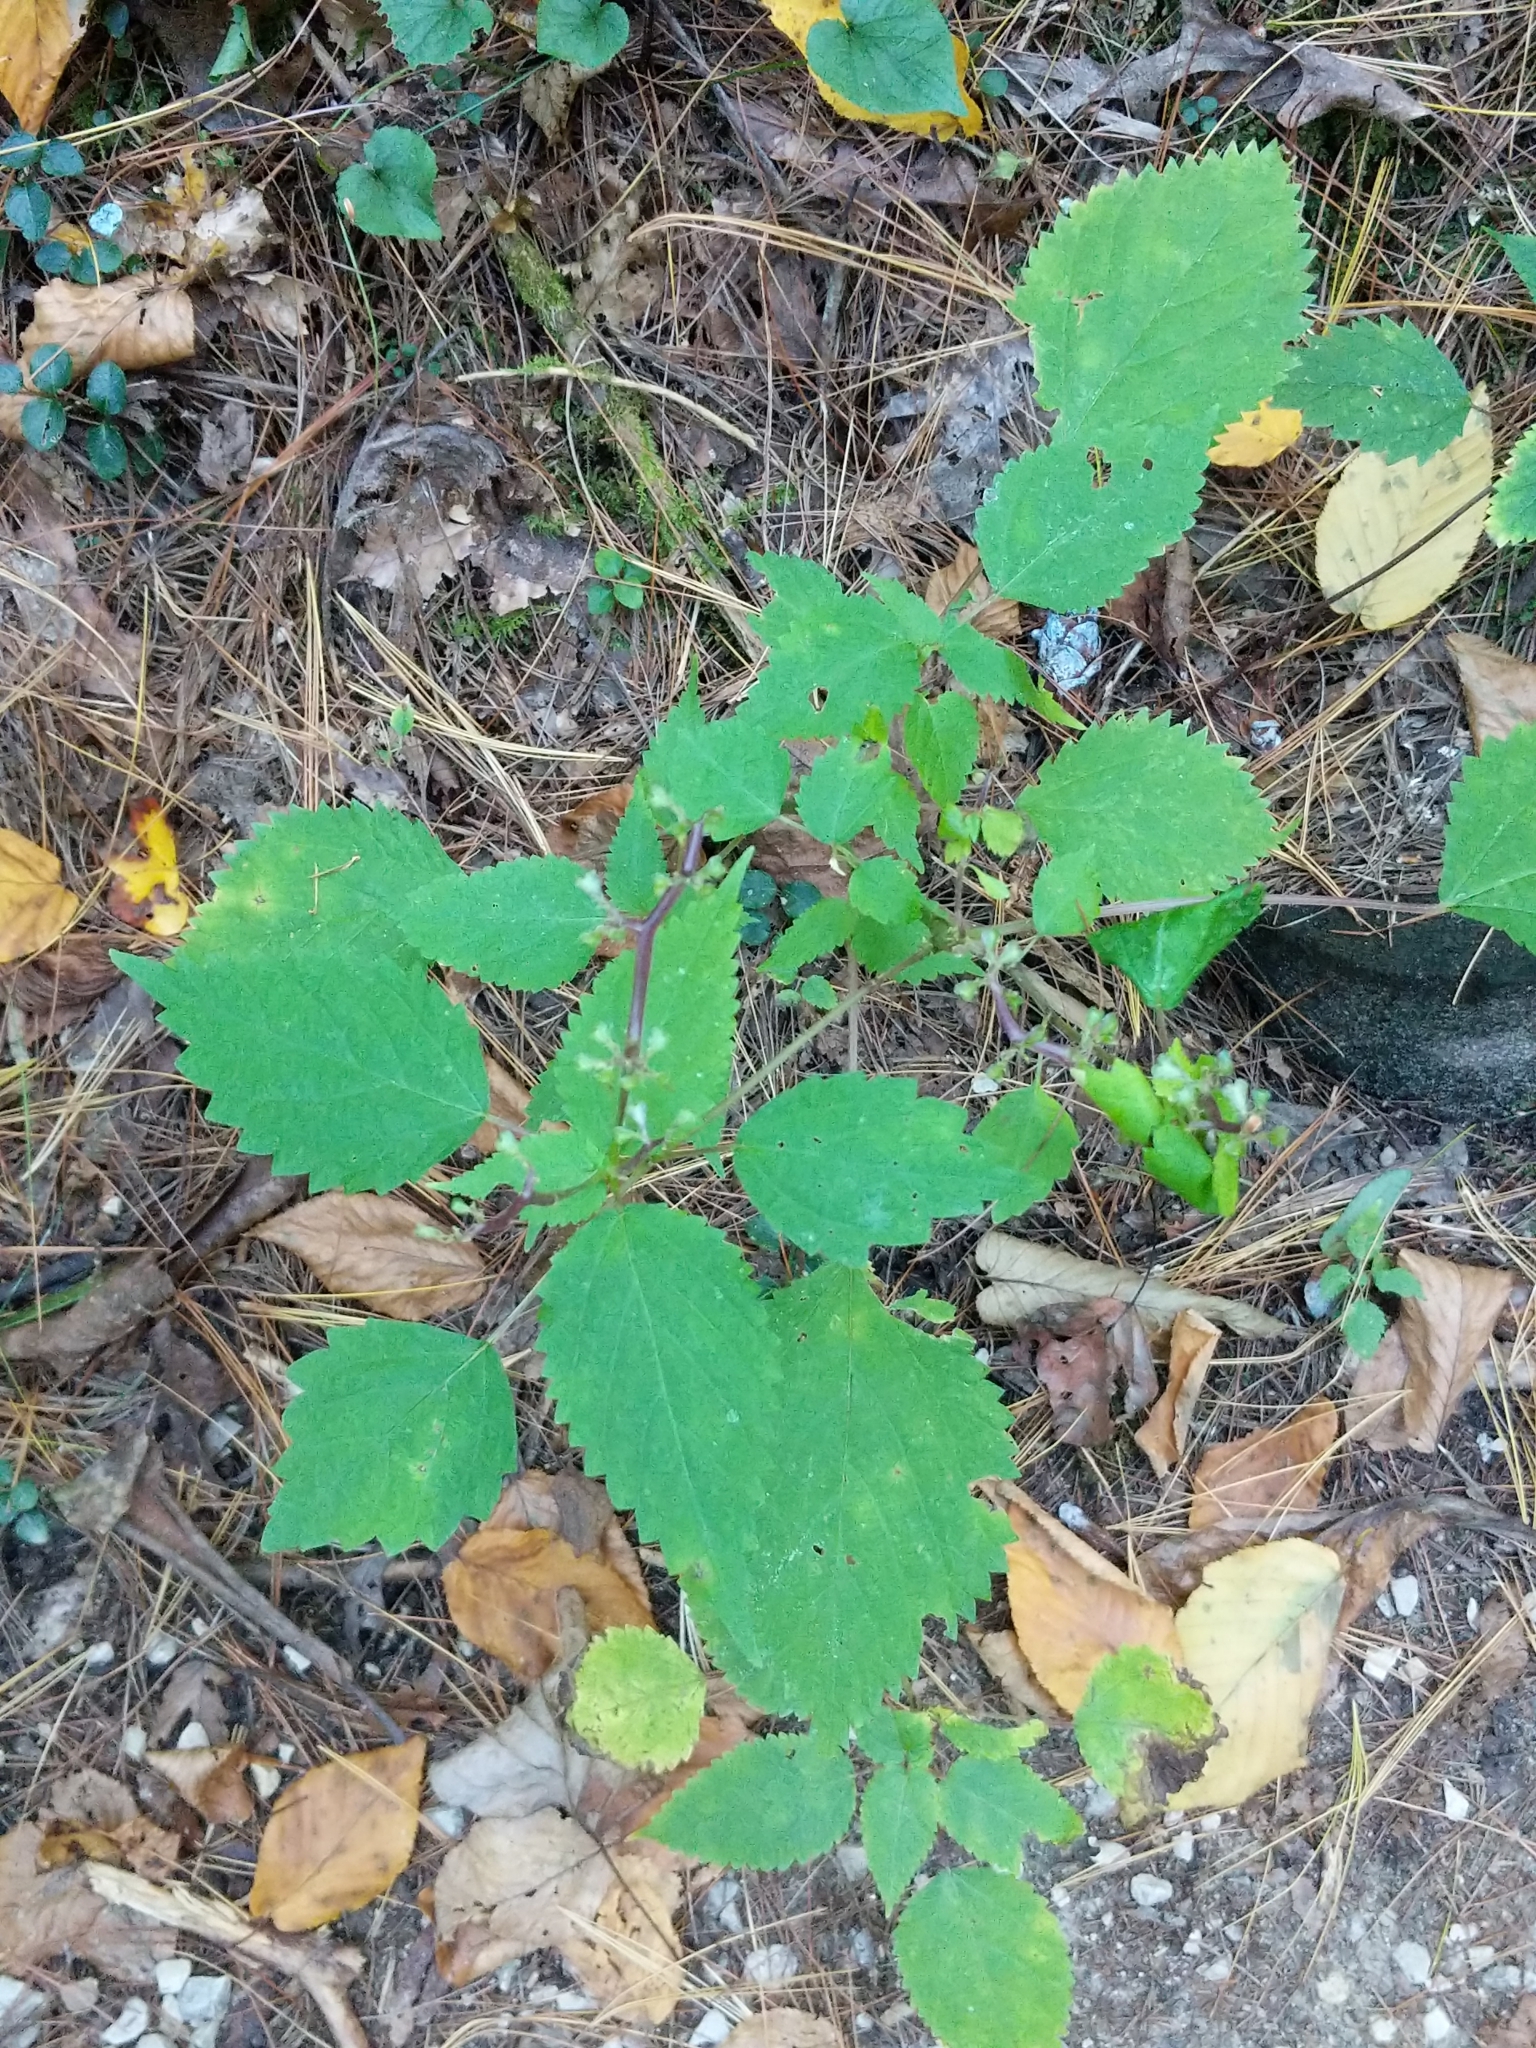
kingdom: Plantae
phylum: Tracheophyta
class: Magnoliopsida
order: Rosales
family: Urticaceae
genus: Laportea
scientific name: Laportea canadensis
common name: Canada nettle
